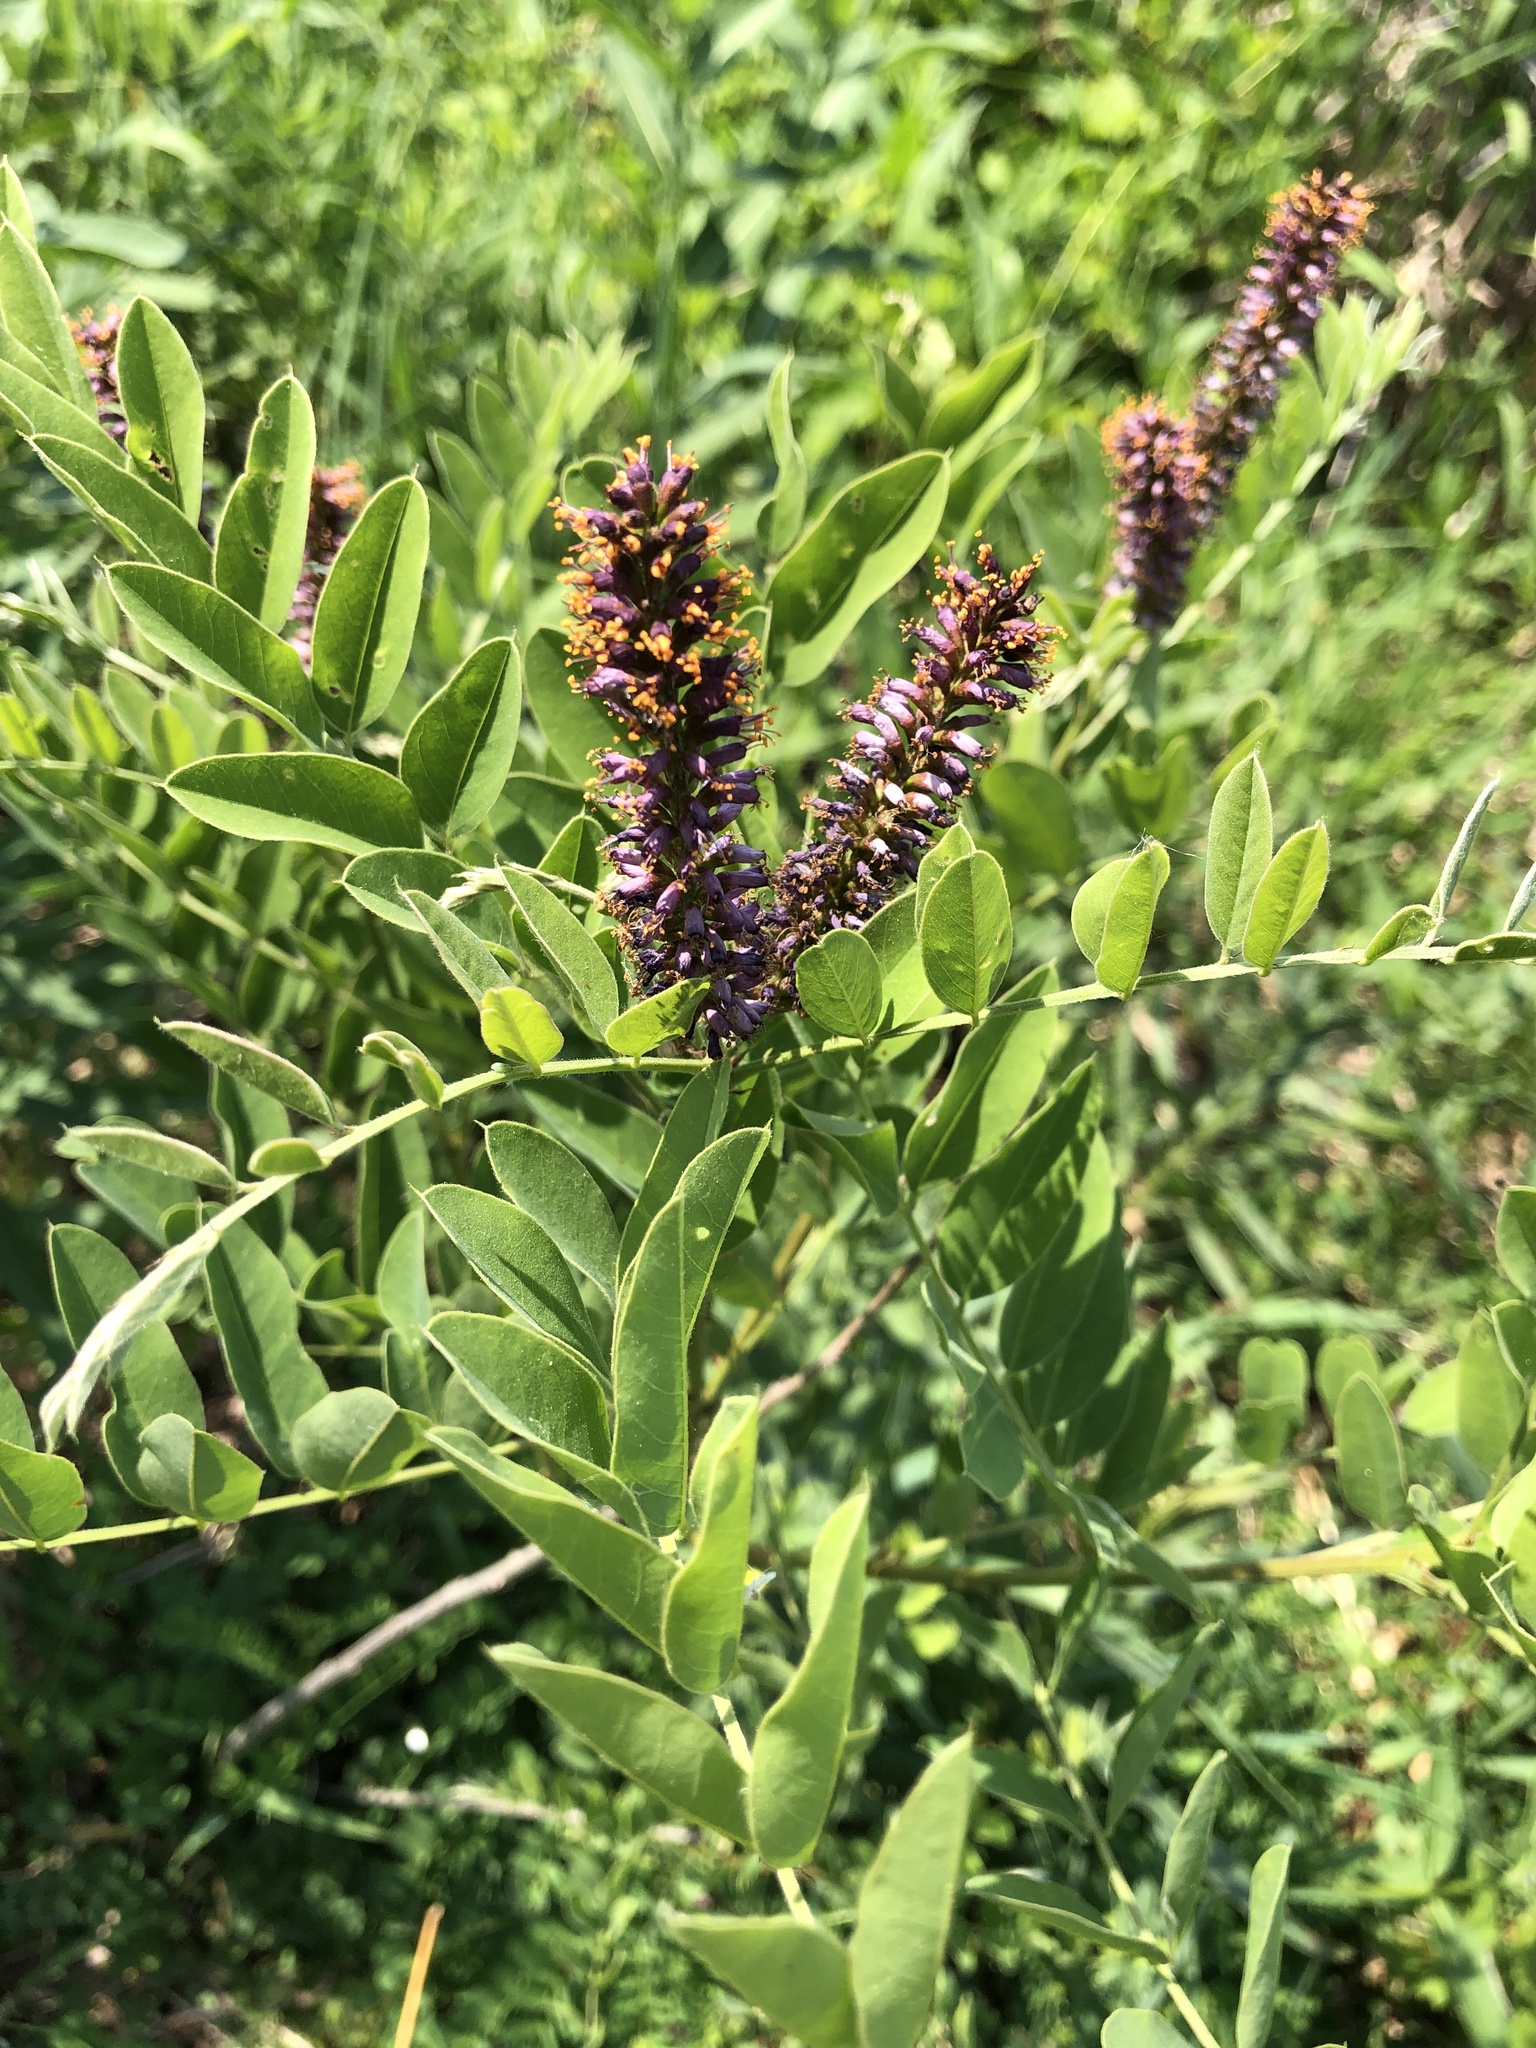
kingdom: Plantae
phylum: Tracheophyta
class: Magnoliopsida
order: Fabales
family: Fabaceae
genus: Amorpha
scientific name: Amorpha fruticosa
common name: False indigo
